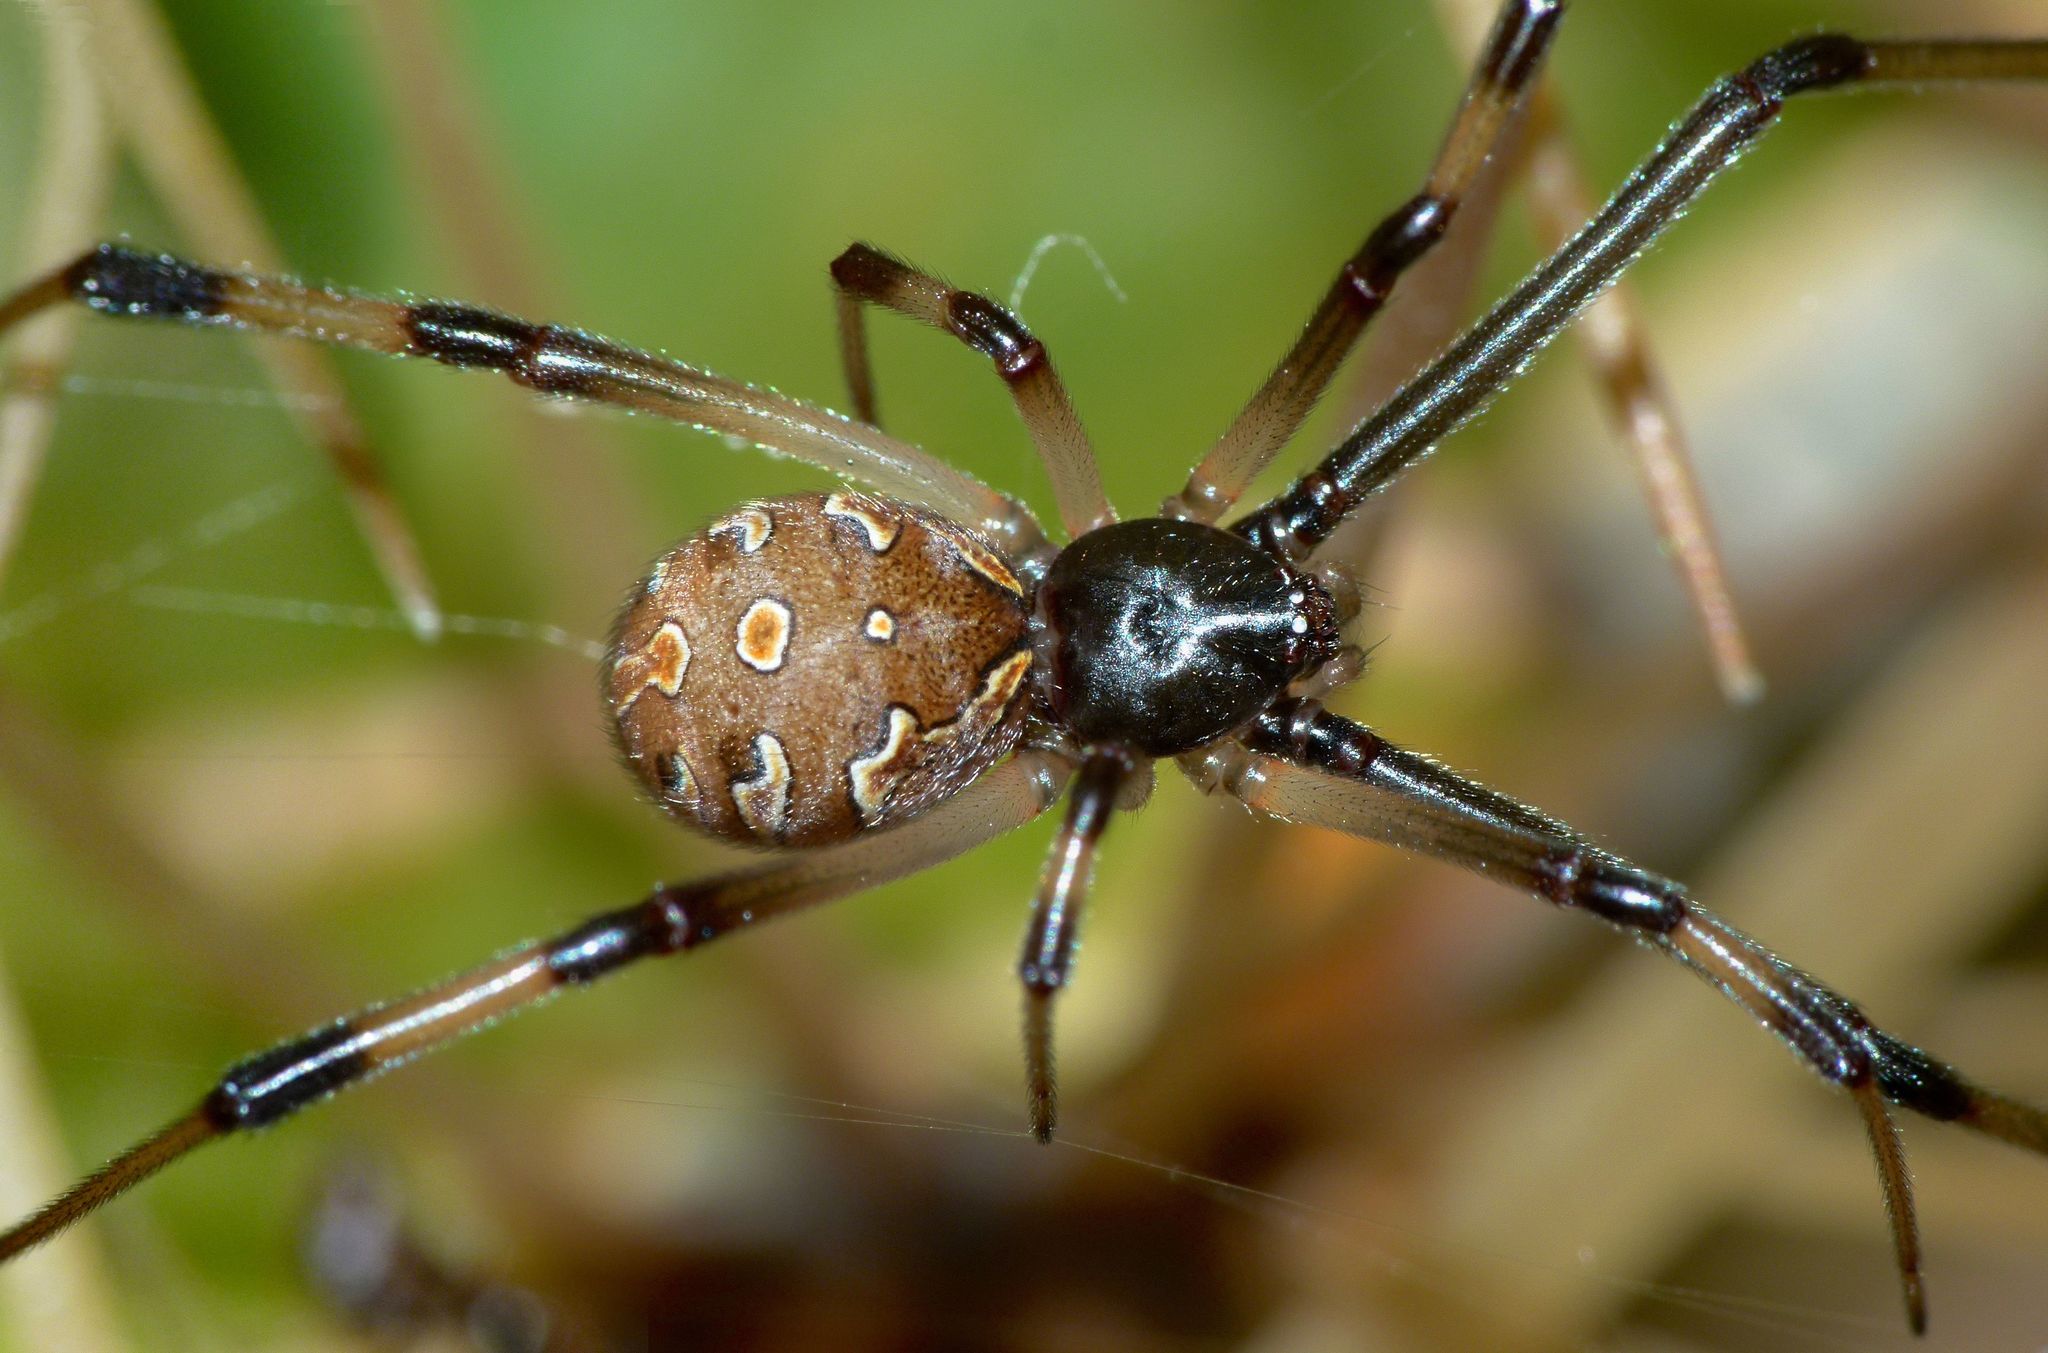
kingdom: Animalia
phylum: Arthropoda
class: Arachnida
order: Araneae
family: Theridiidae
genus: Latrodectus
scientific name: Latrodectus geometricus
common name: Brown widow spider
